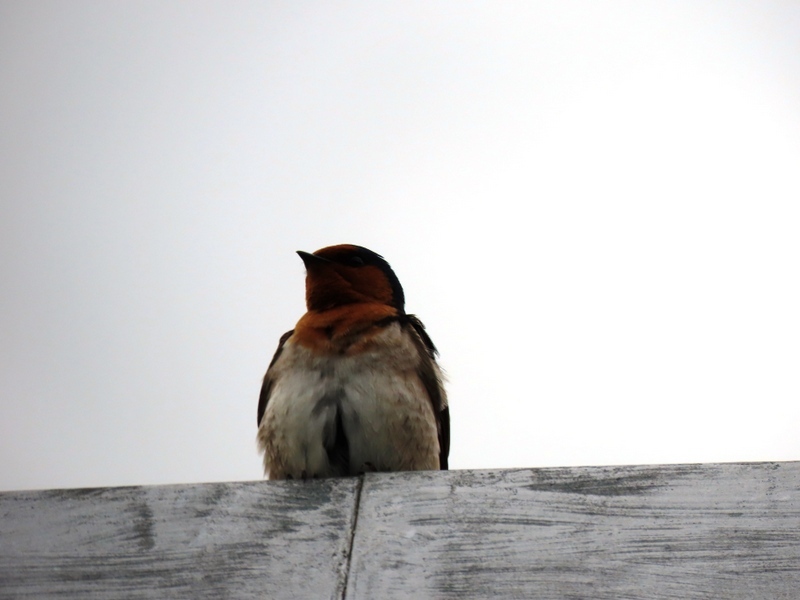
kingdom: Animalia
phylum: Chordata
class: Aves
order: Passeriformes
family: Hirundinidae
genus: Hirundo
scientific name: Hirundo neoxena
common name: Welcome swallow
